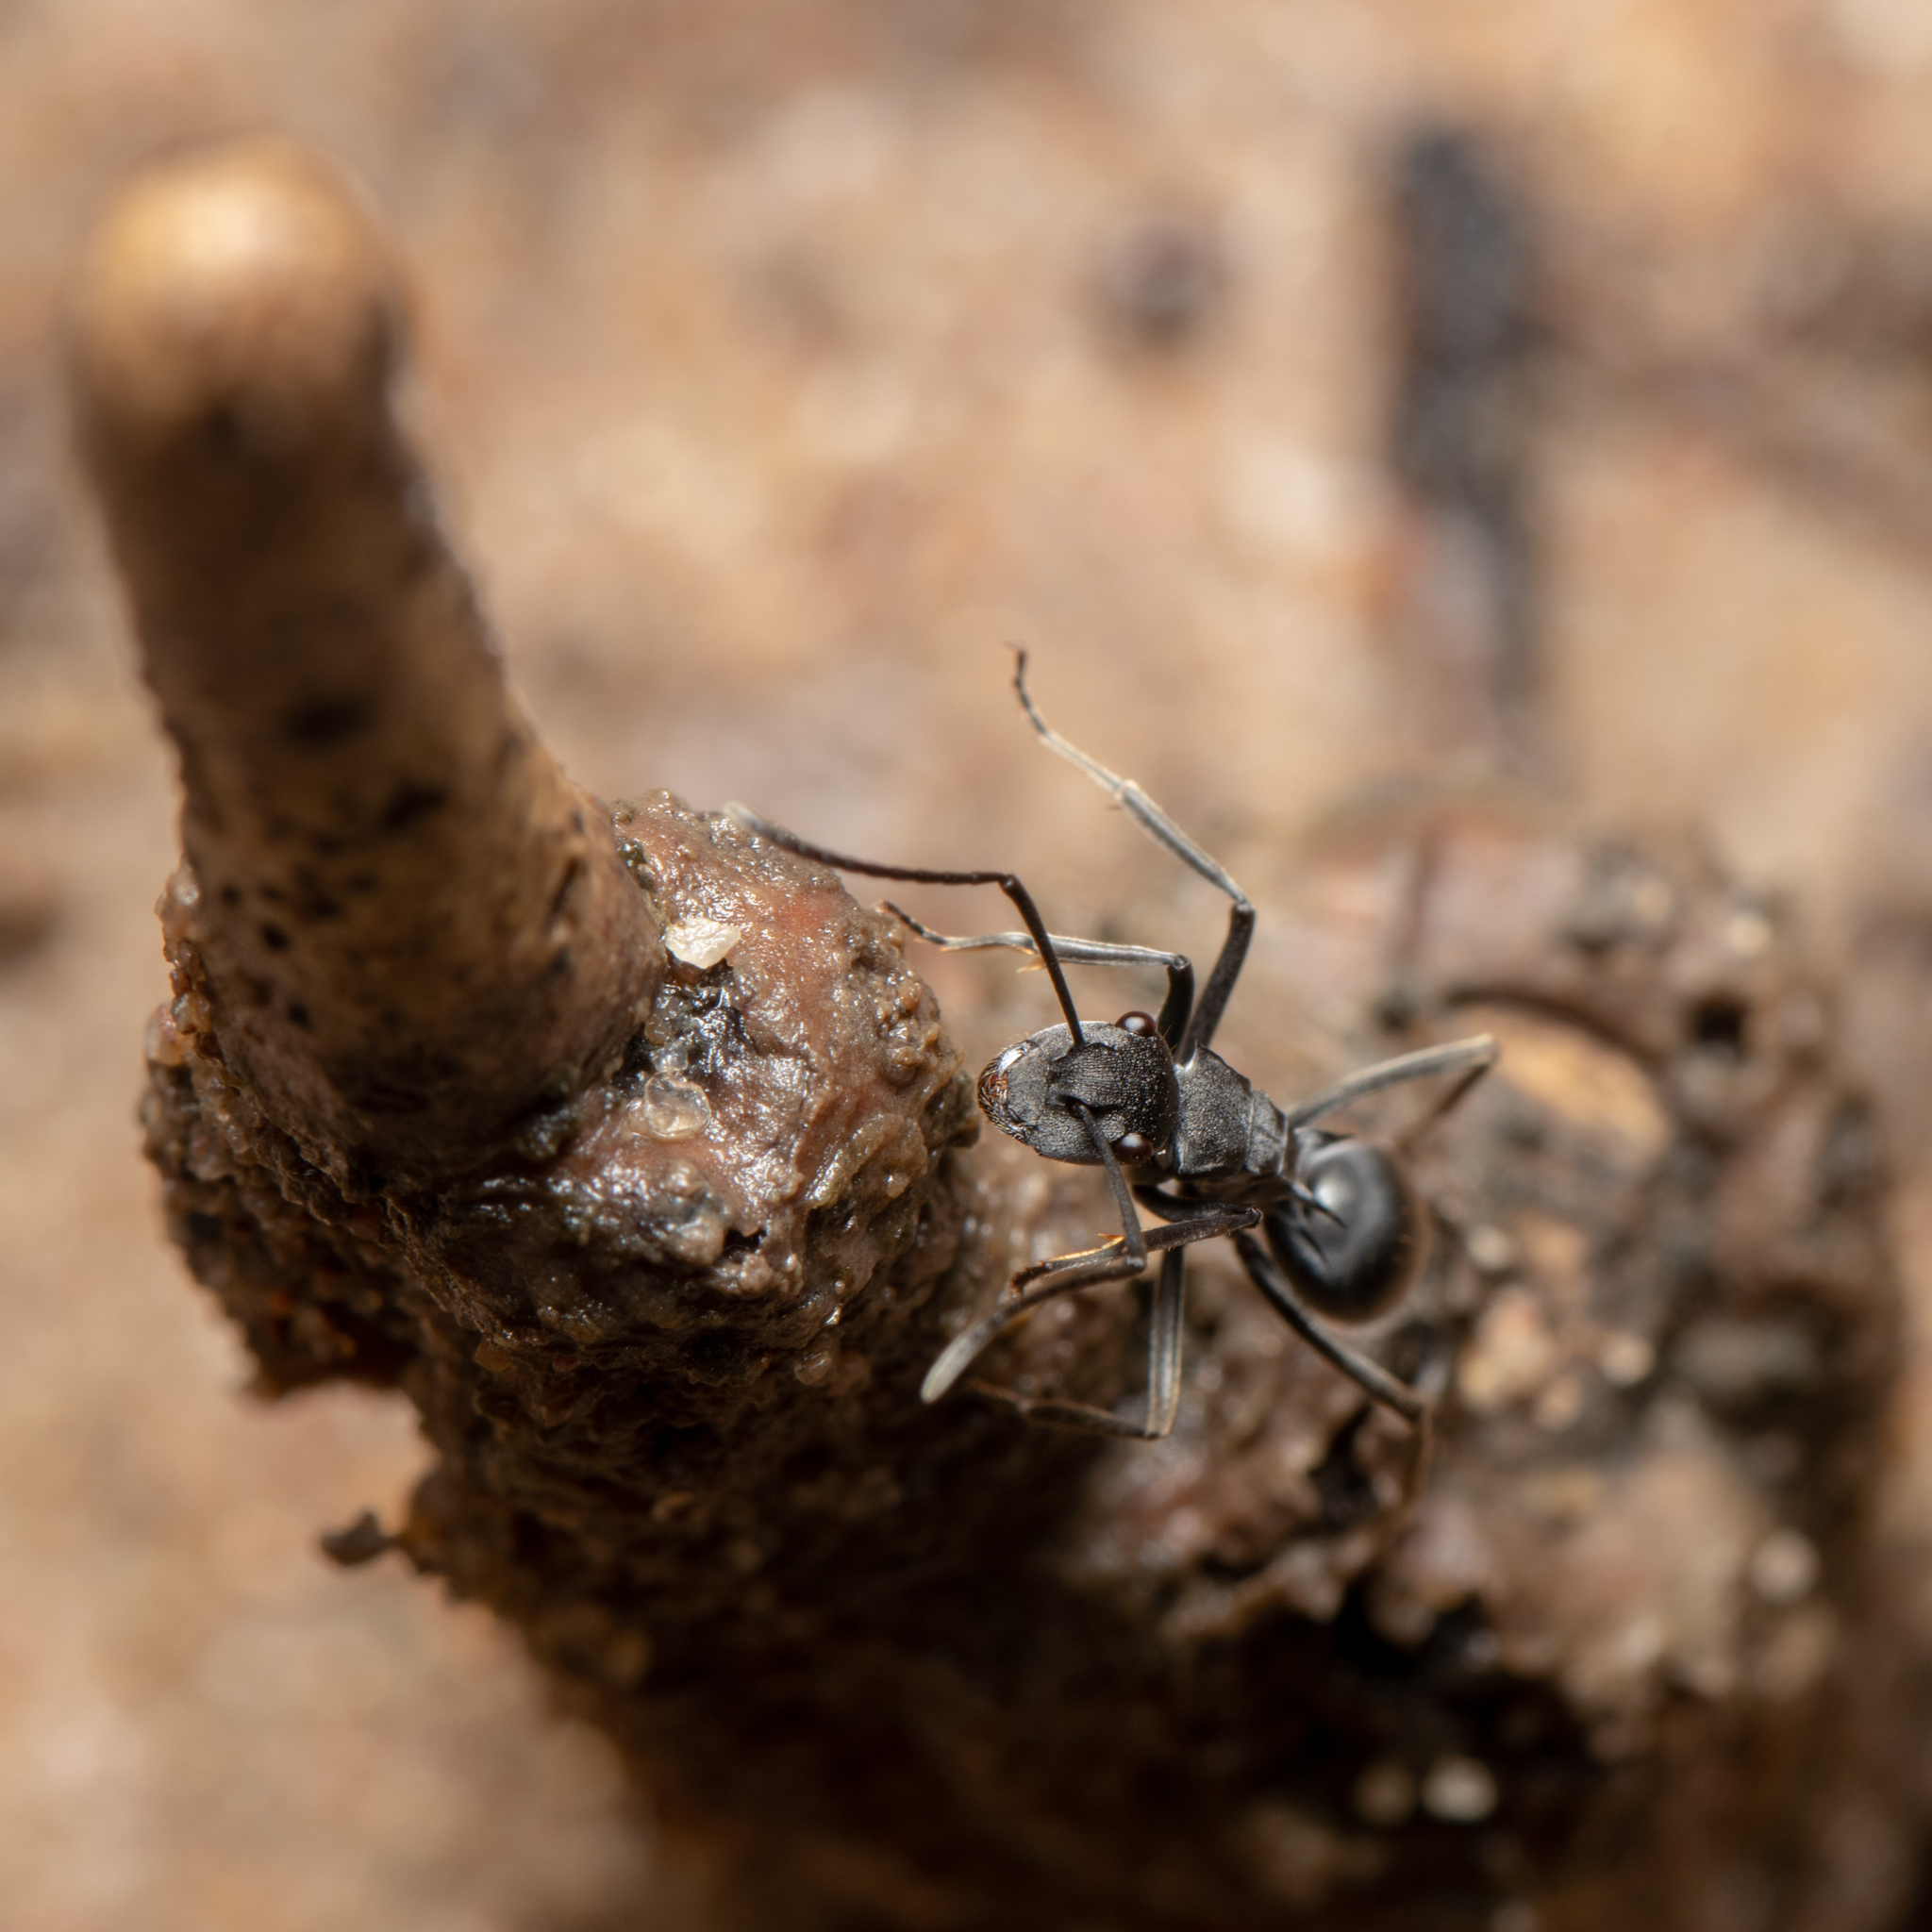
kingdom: Animalia
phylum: Arthropoda
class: Insecta
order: Hymenoptera
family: Formicidae
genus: Polyrhachis
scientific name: Polyrhachis sokolova
